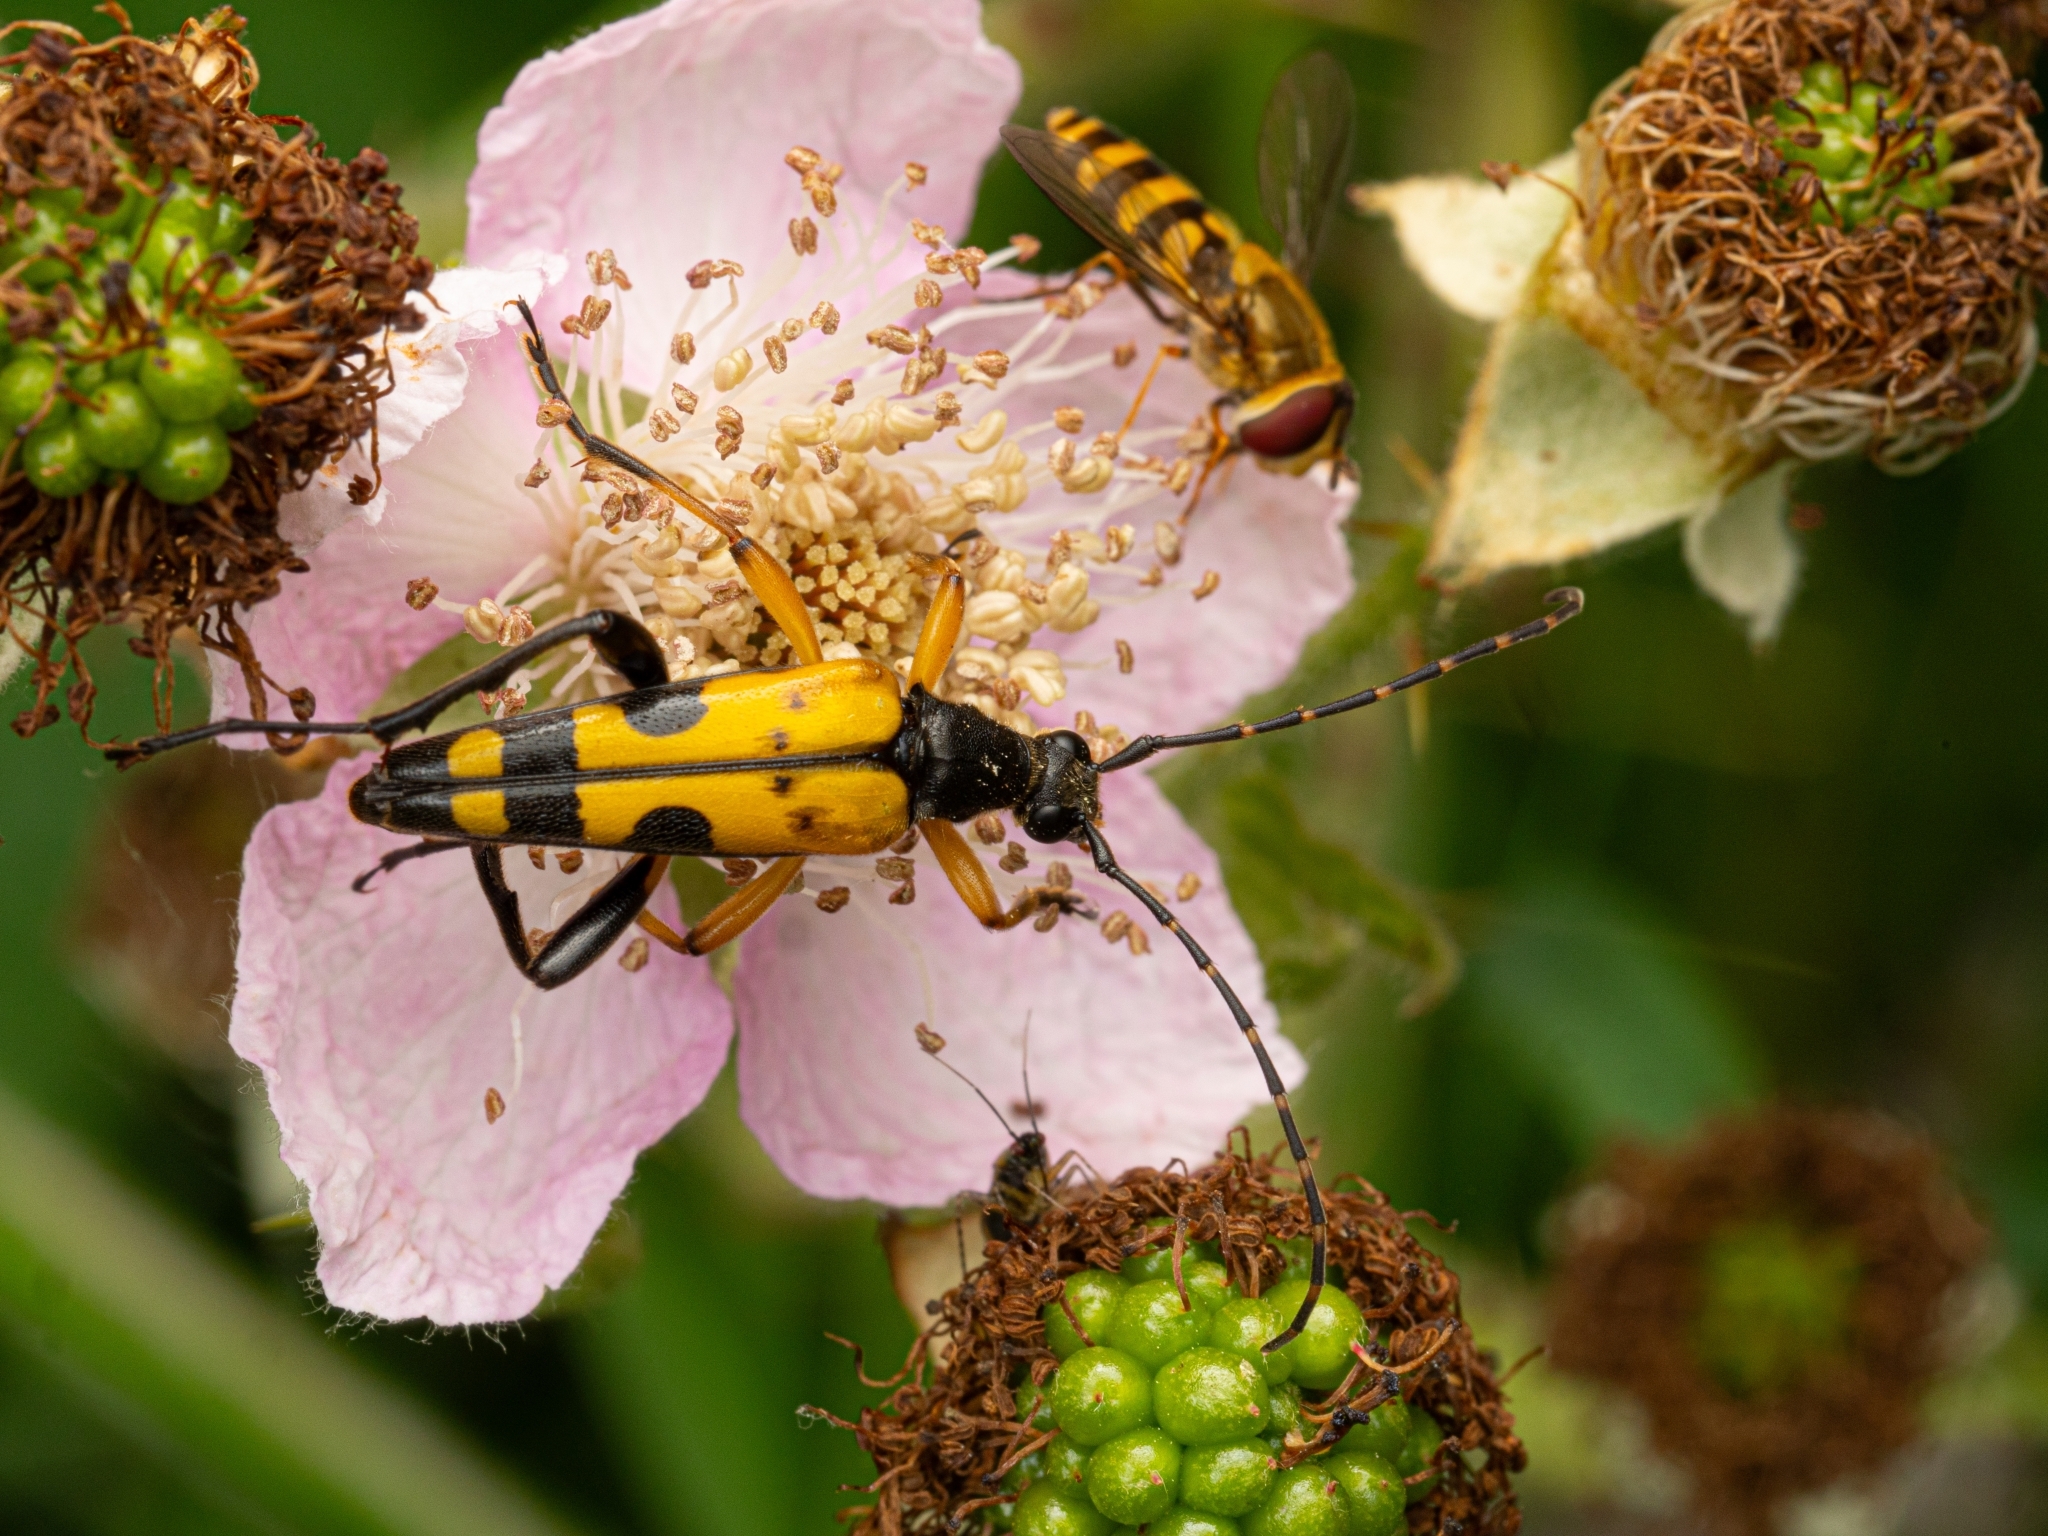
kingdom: Animalia
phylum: Arthropoda
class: Insecta
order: Coleoptera
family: Cerambycidae
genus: Rutpela
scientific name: Rutpela maculata
